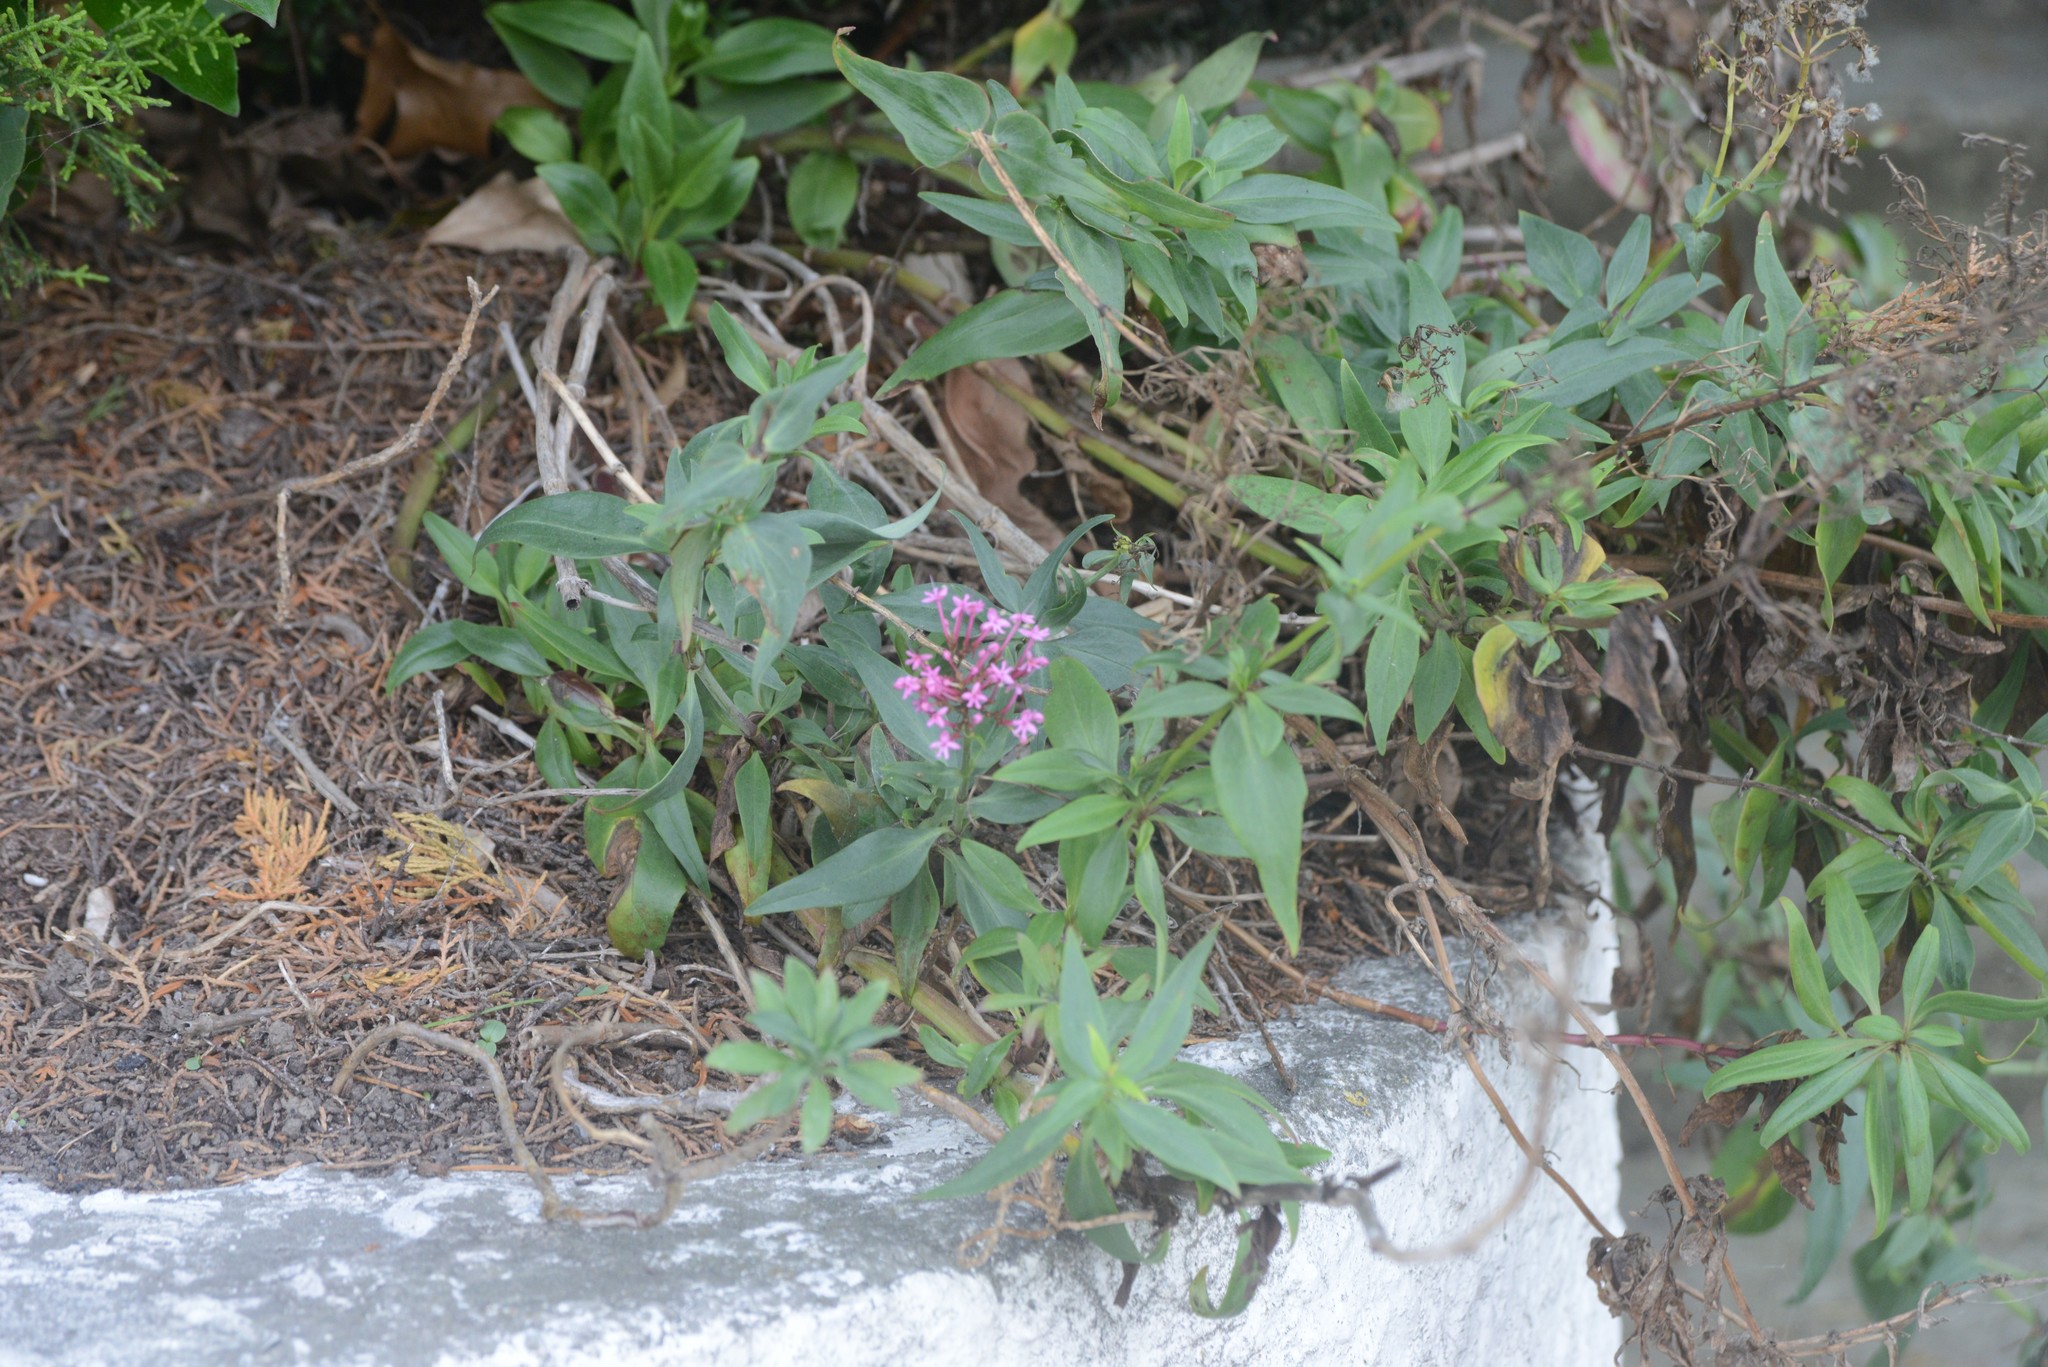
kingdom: Plantae
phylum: Tracheophyta
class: Magnoliopsida
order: Dipsacales
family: Caprifoliaceae
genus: Centranthus
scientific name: Centranthus ruber
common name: Red valerian
